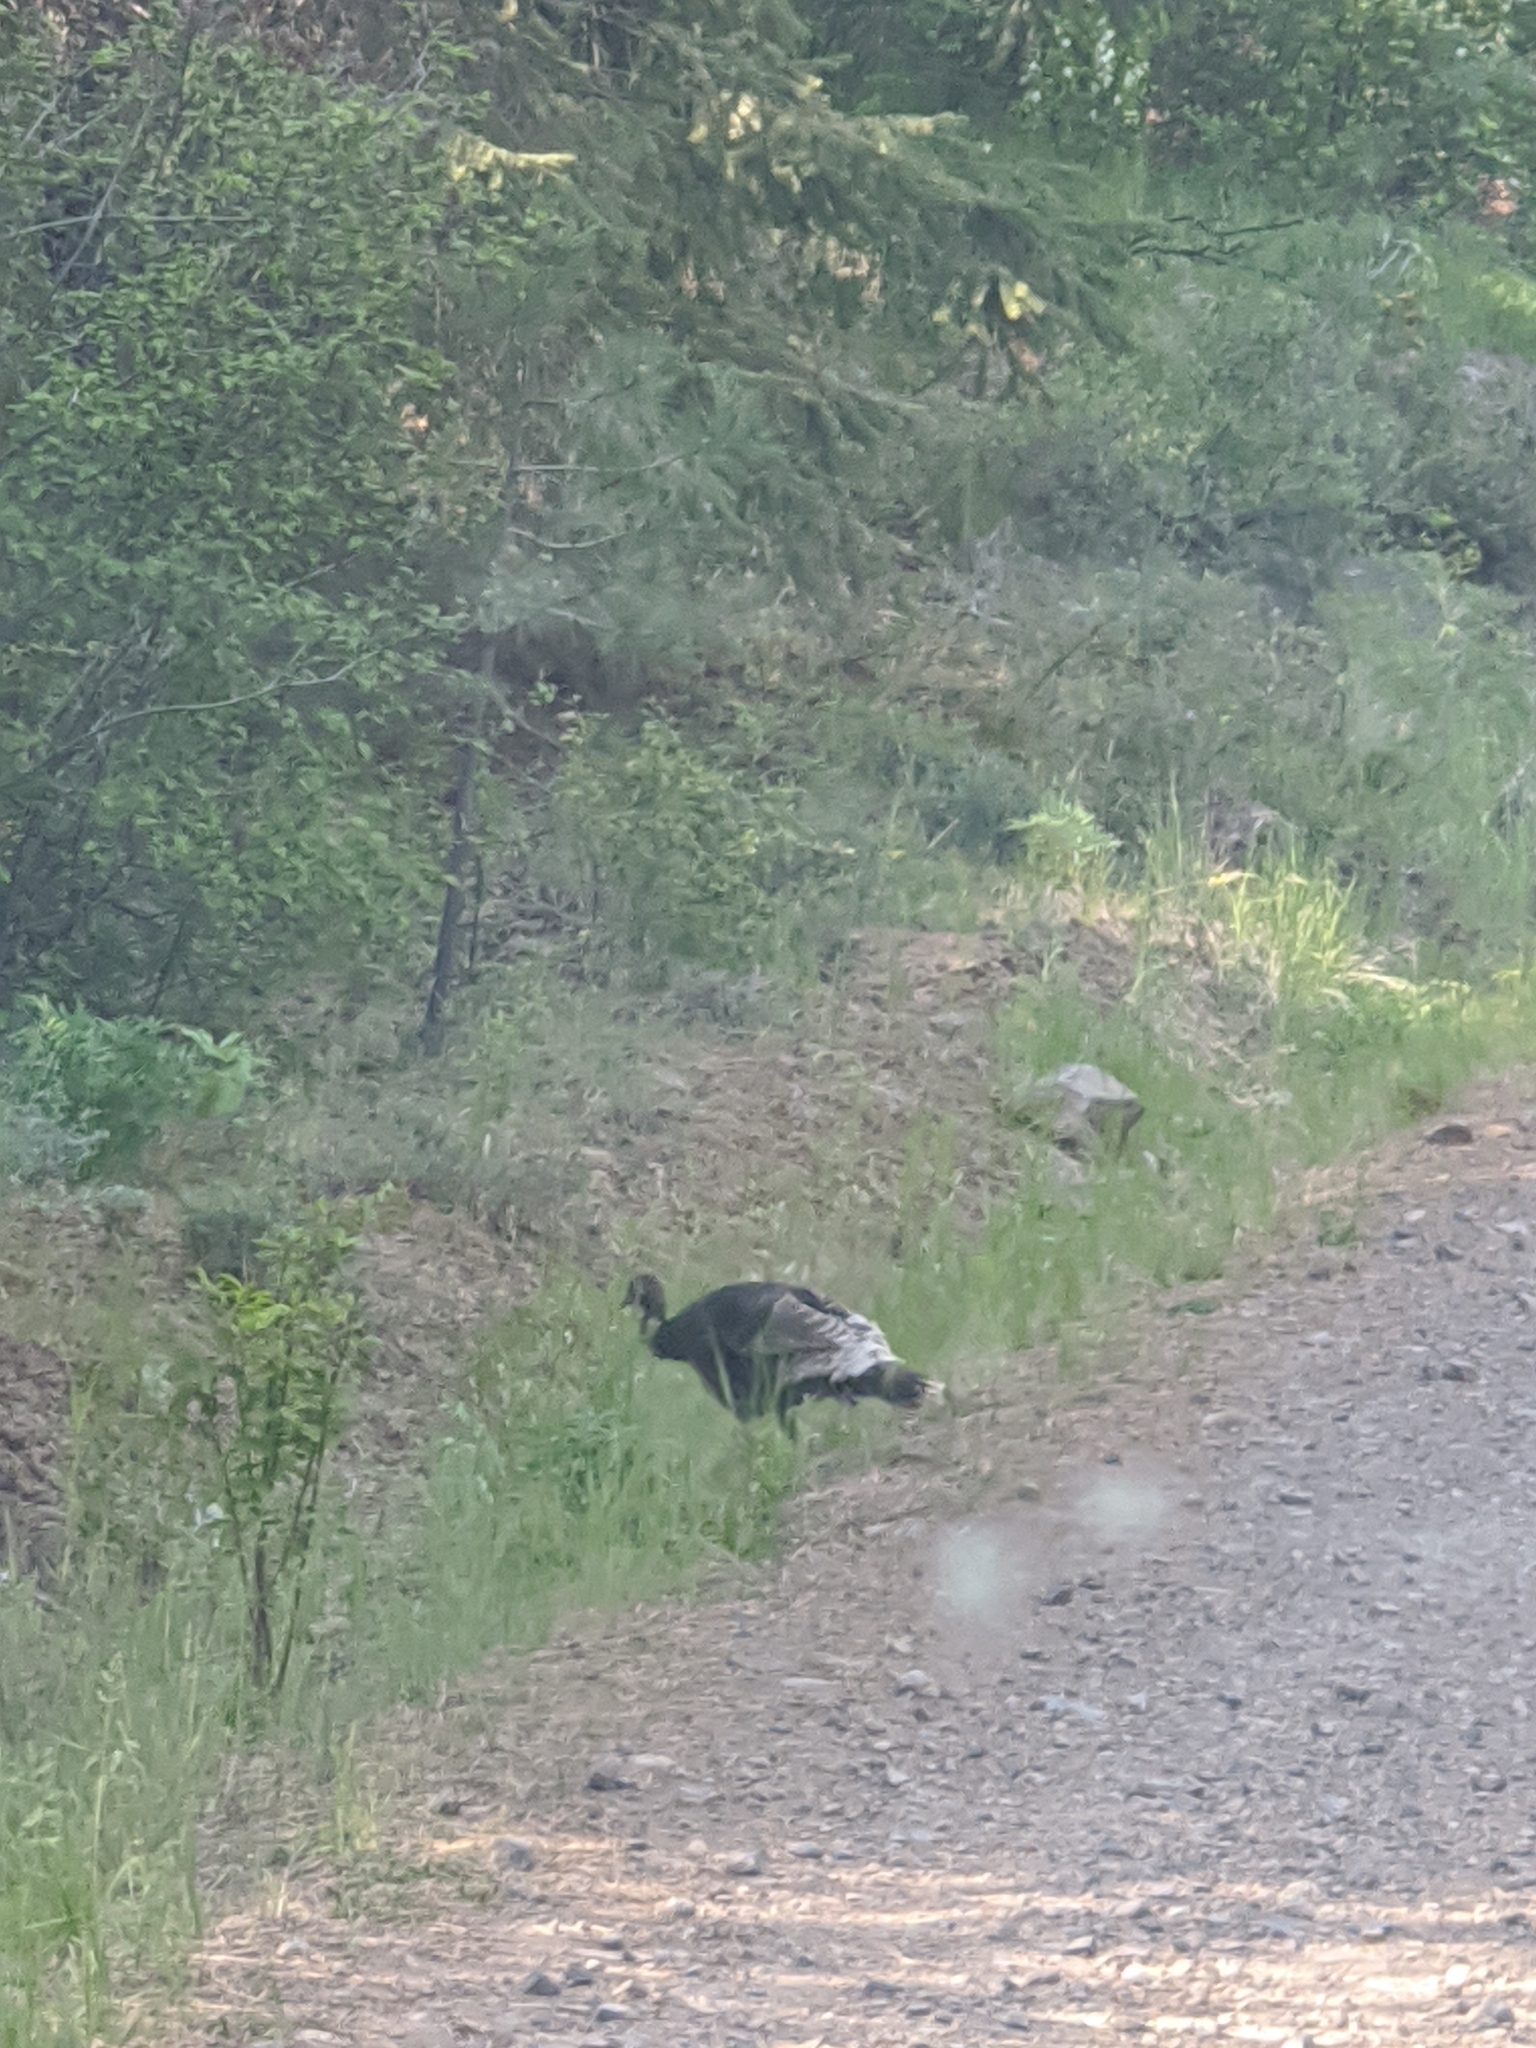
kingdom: Animalia
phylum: Chordata
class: Aves
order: Galliformes
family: Phasianidae
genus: Meleagris
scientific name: Meleagris gallopavo
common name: Wild turkey
